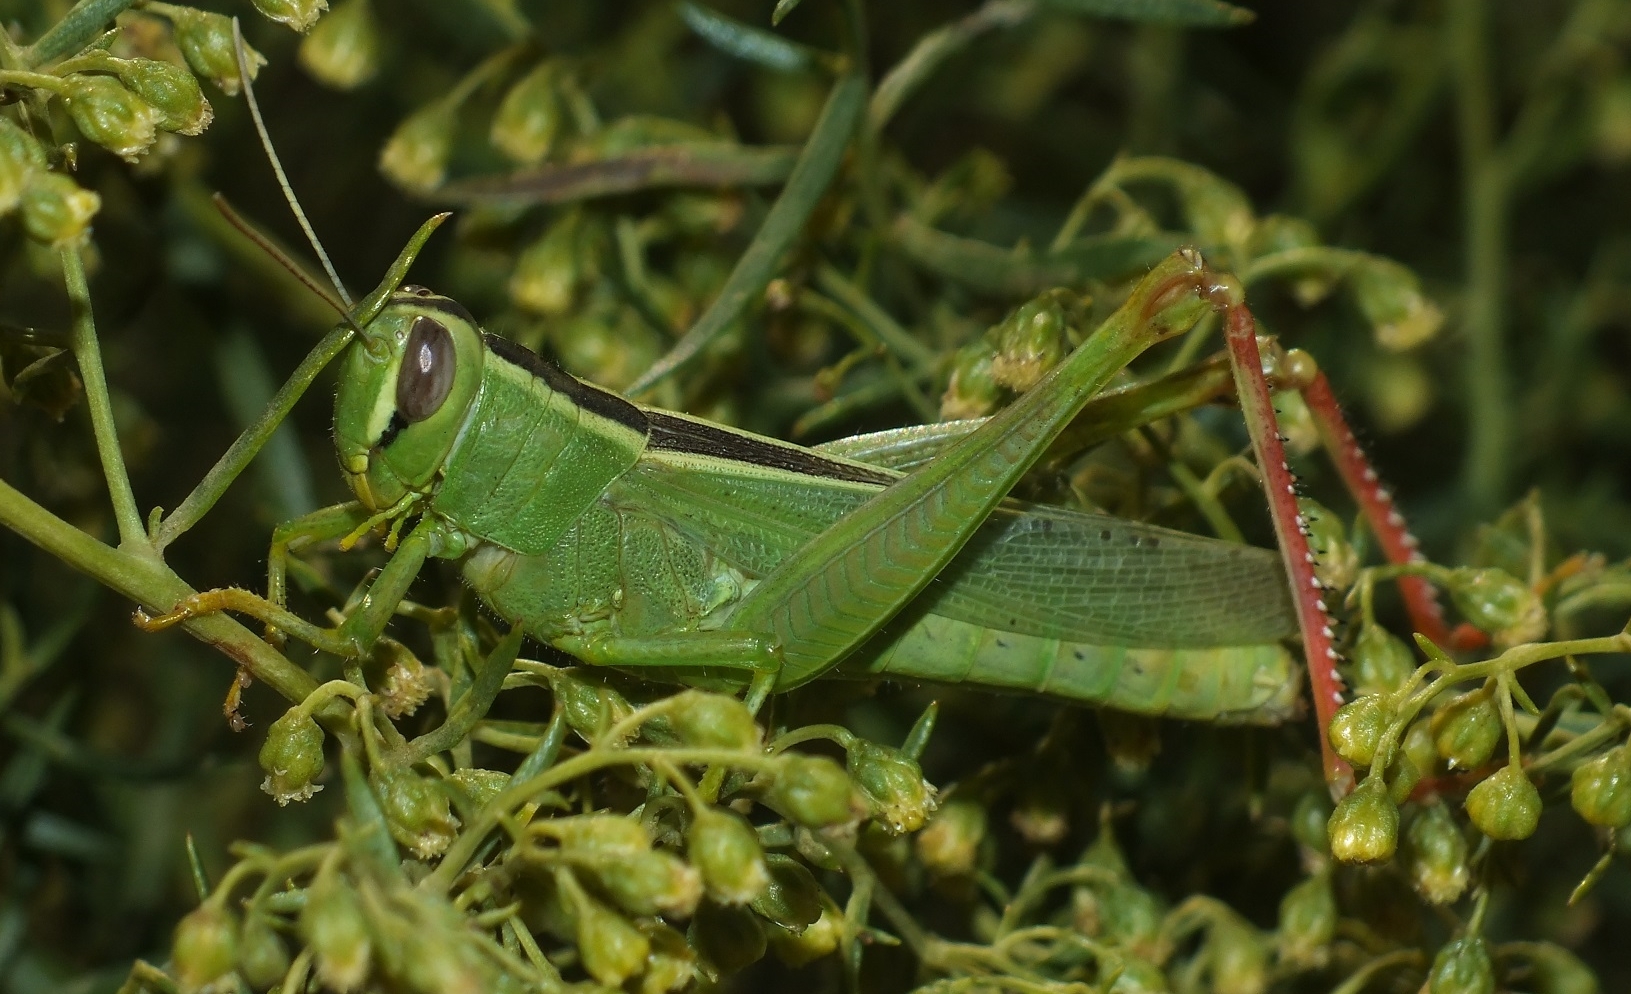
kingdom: Animalia
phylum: Arthropoda
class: Insecta
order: Orthoptera
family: Acrididae
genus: Heteracris
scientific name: Heteracris pterosticha
